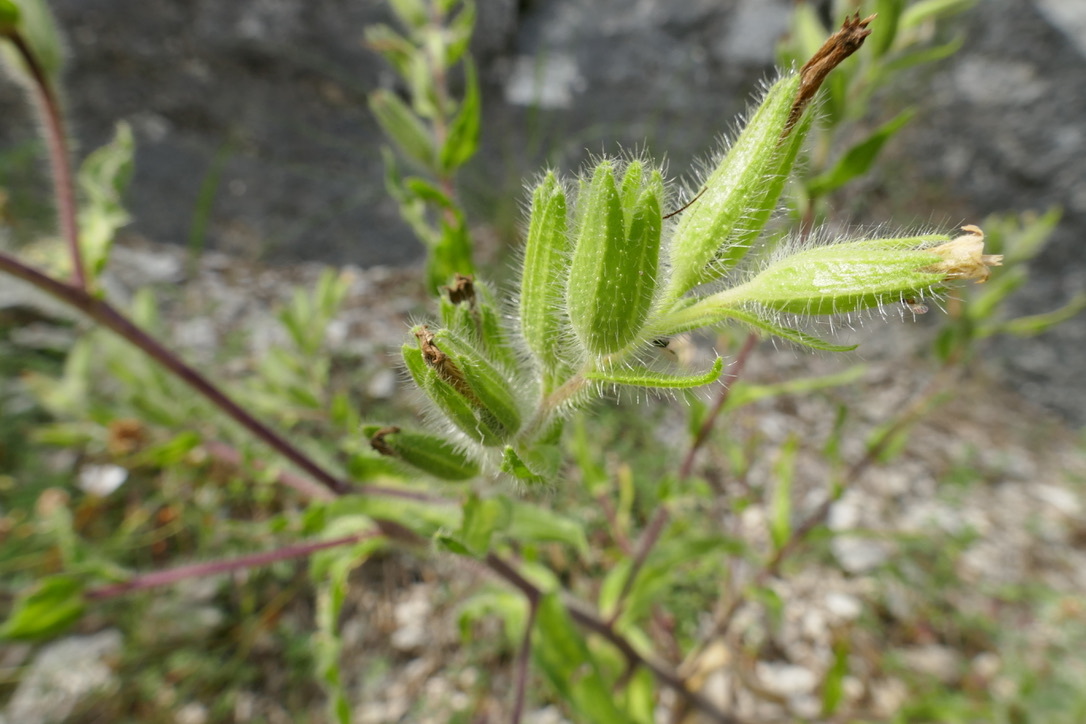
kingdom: Plantae
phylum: Tracheophyta
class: Magnoliopsida
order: Boraginales
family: Boraginaceae
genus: Onosma
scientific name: Onosma visianii
